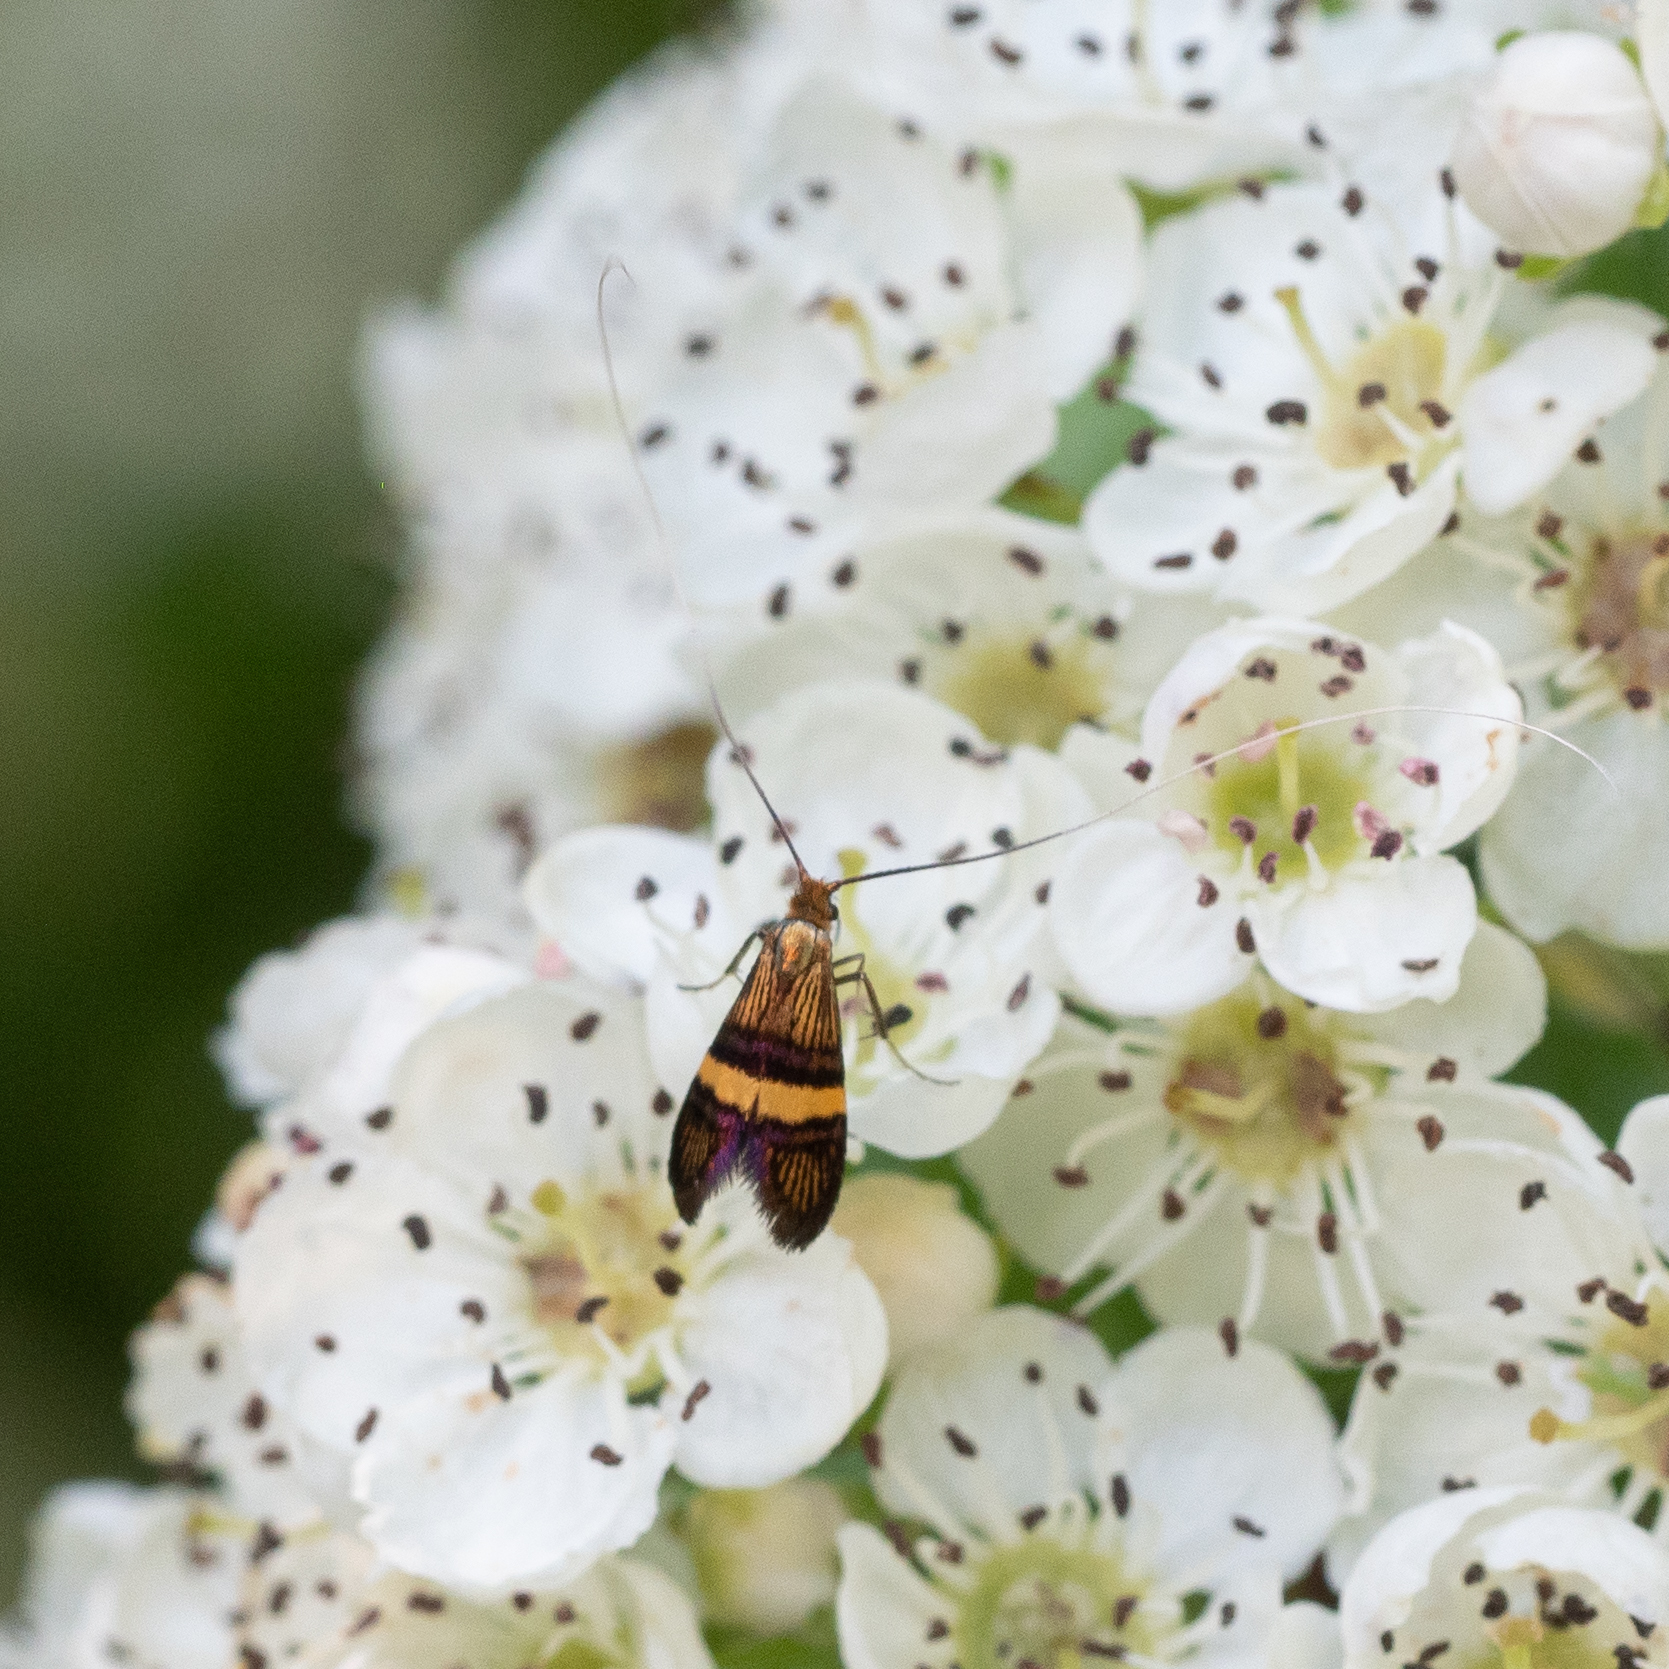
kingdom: Animalia
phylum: Arthropoda
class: Insecta
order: Lepidoptera
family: Adelidae
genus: Adela
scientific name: Adela croesella
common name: Small barred long-horn
